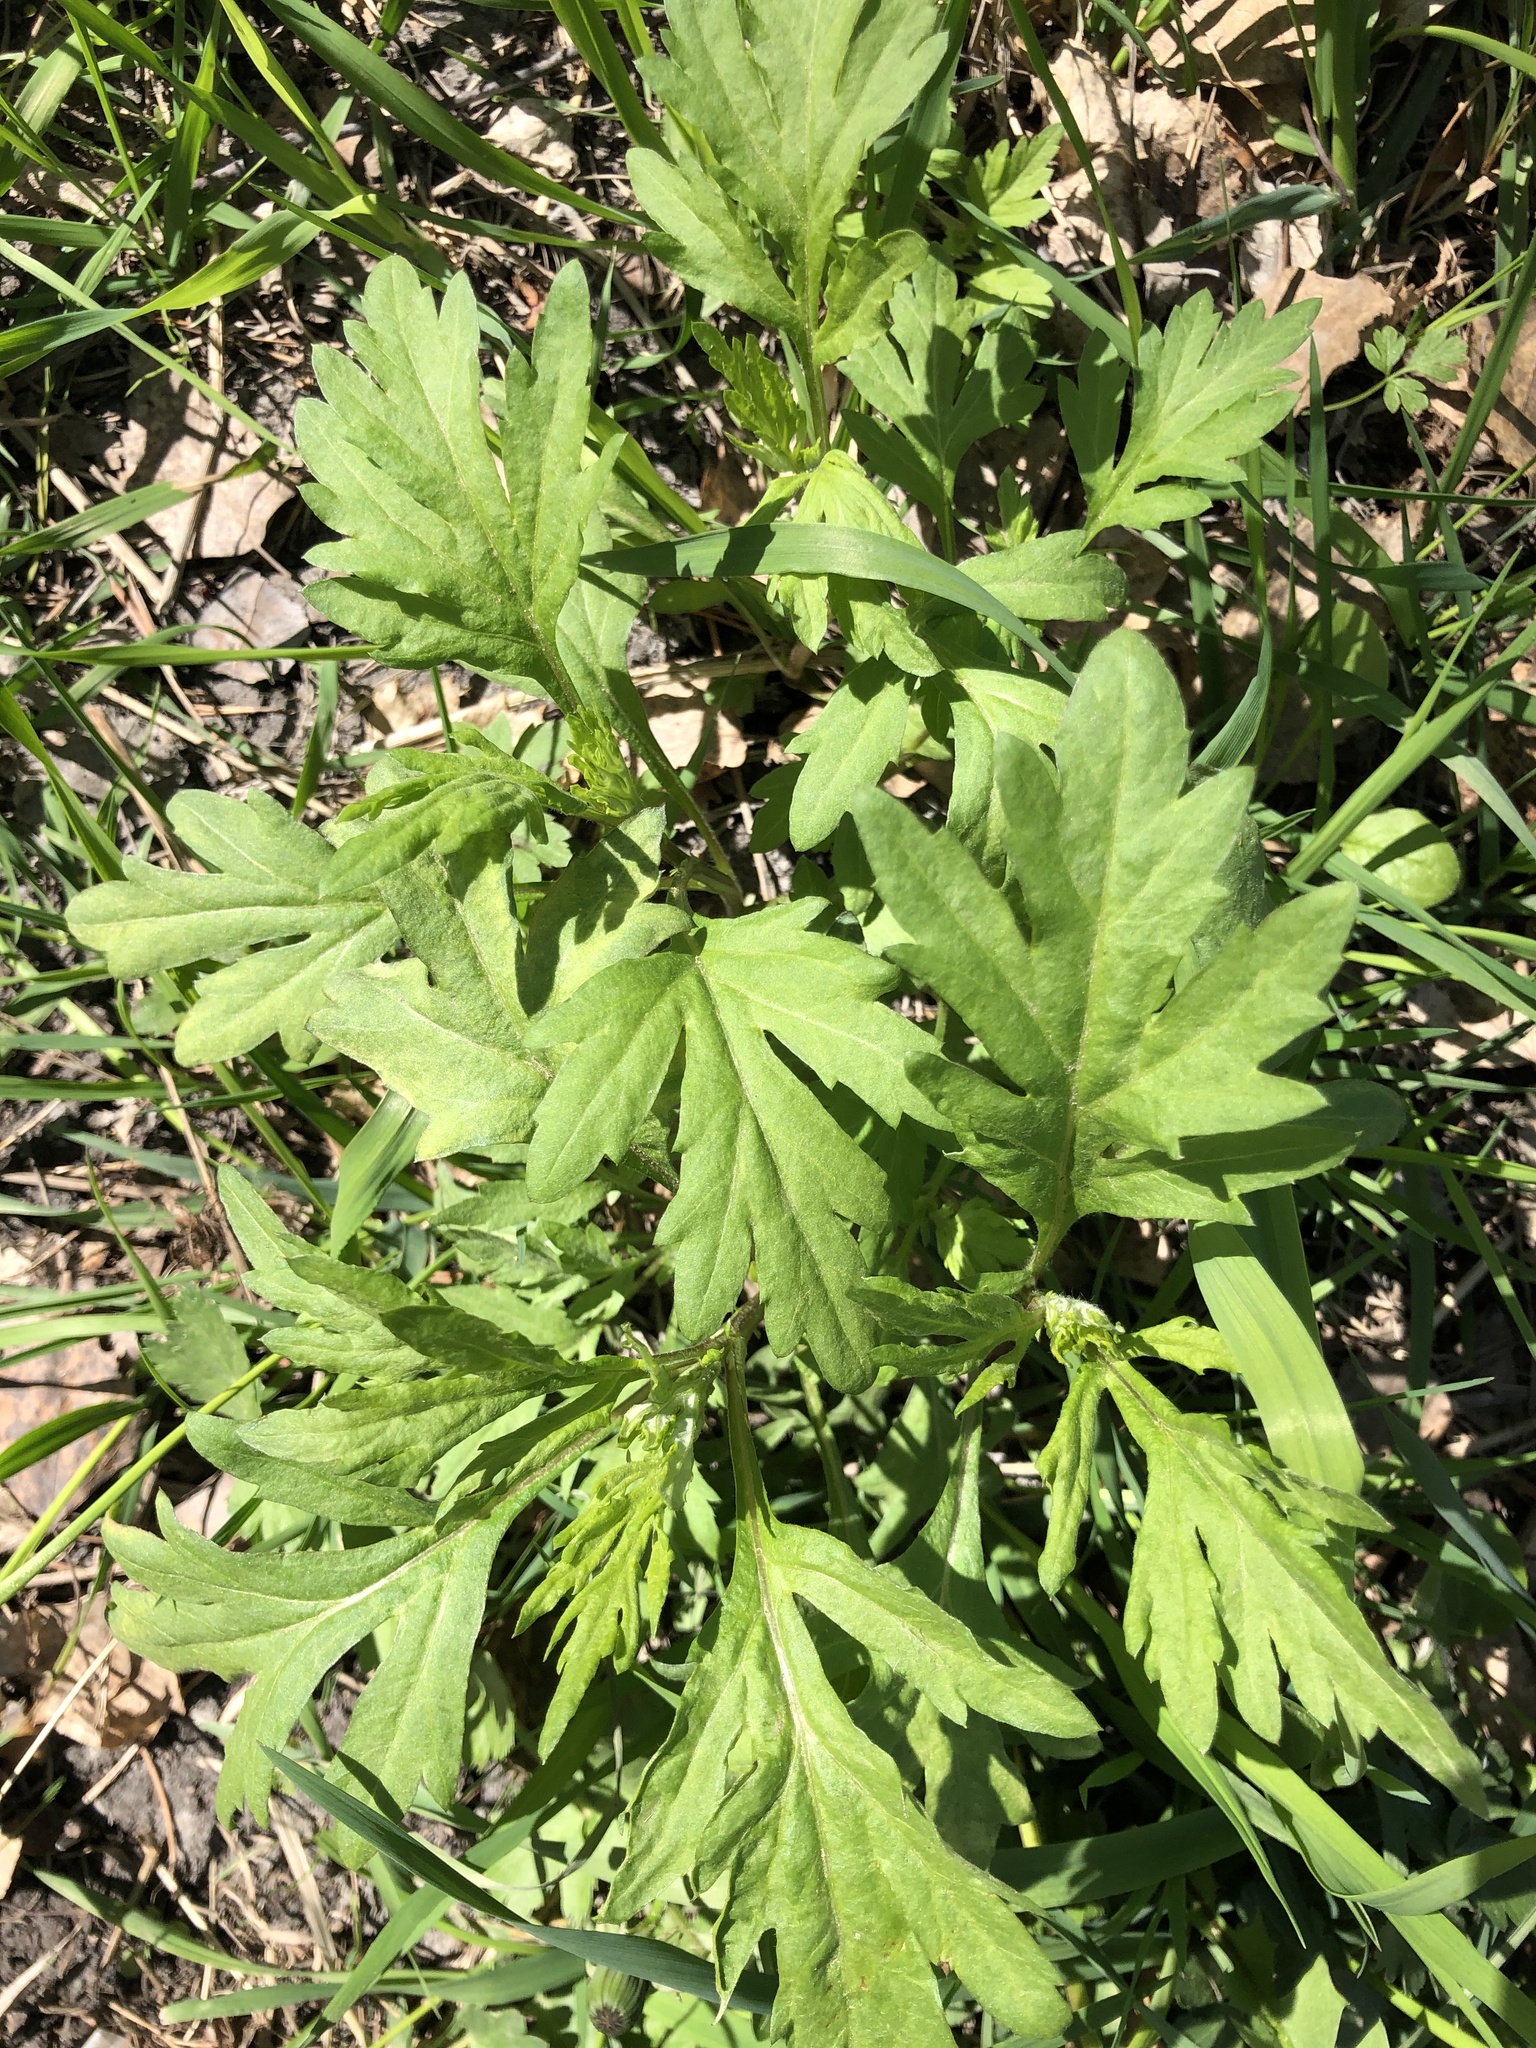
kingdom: Plantae
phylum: Tracheophyta
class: Magnoliopsida
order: Asterales
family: Asteraceae
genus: Artemisia
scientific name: Artemisia vulgaris
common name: Mugwort
